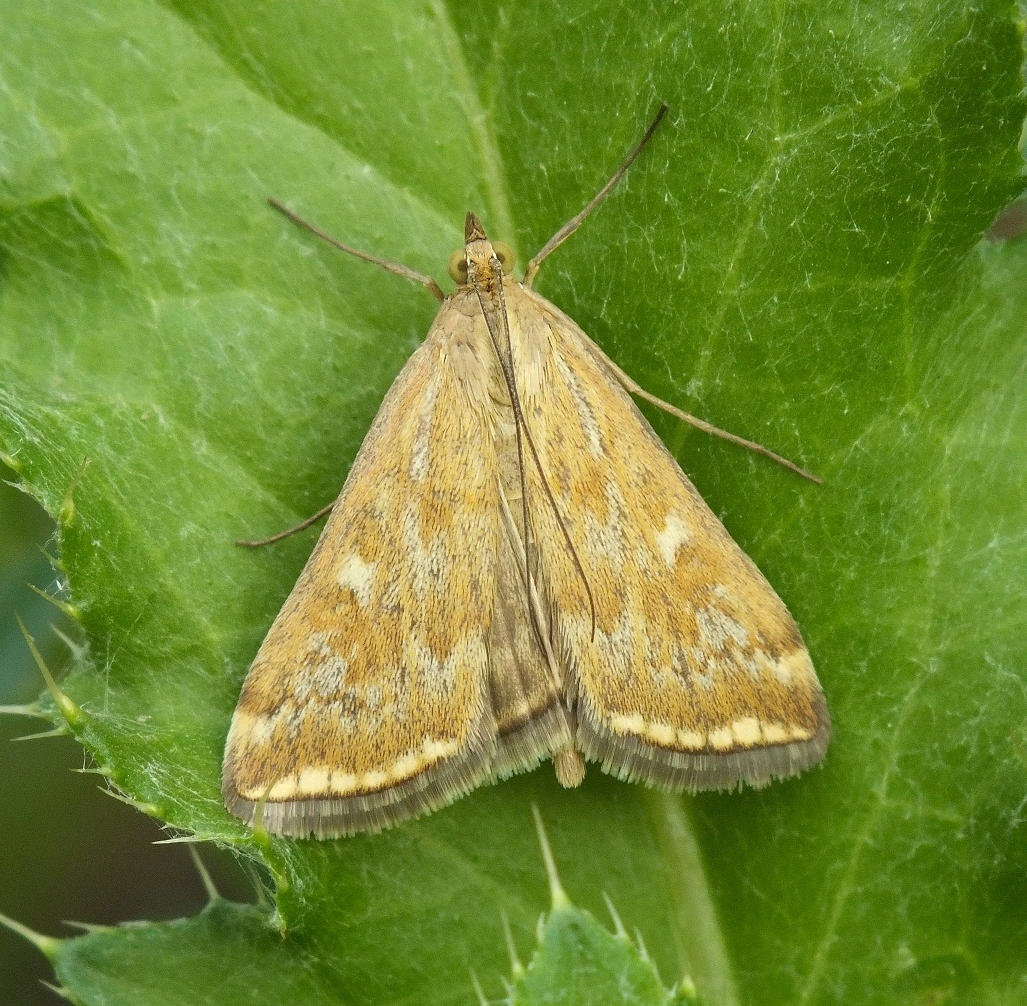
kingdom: Animalia
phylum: Arthropoda
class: Insecta
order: Lepidoptera
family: Crambidae
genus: Loxostege
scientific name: Loxostege sticticalis
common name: Crambid moth
